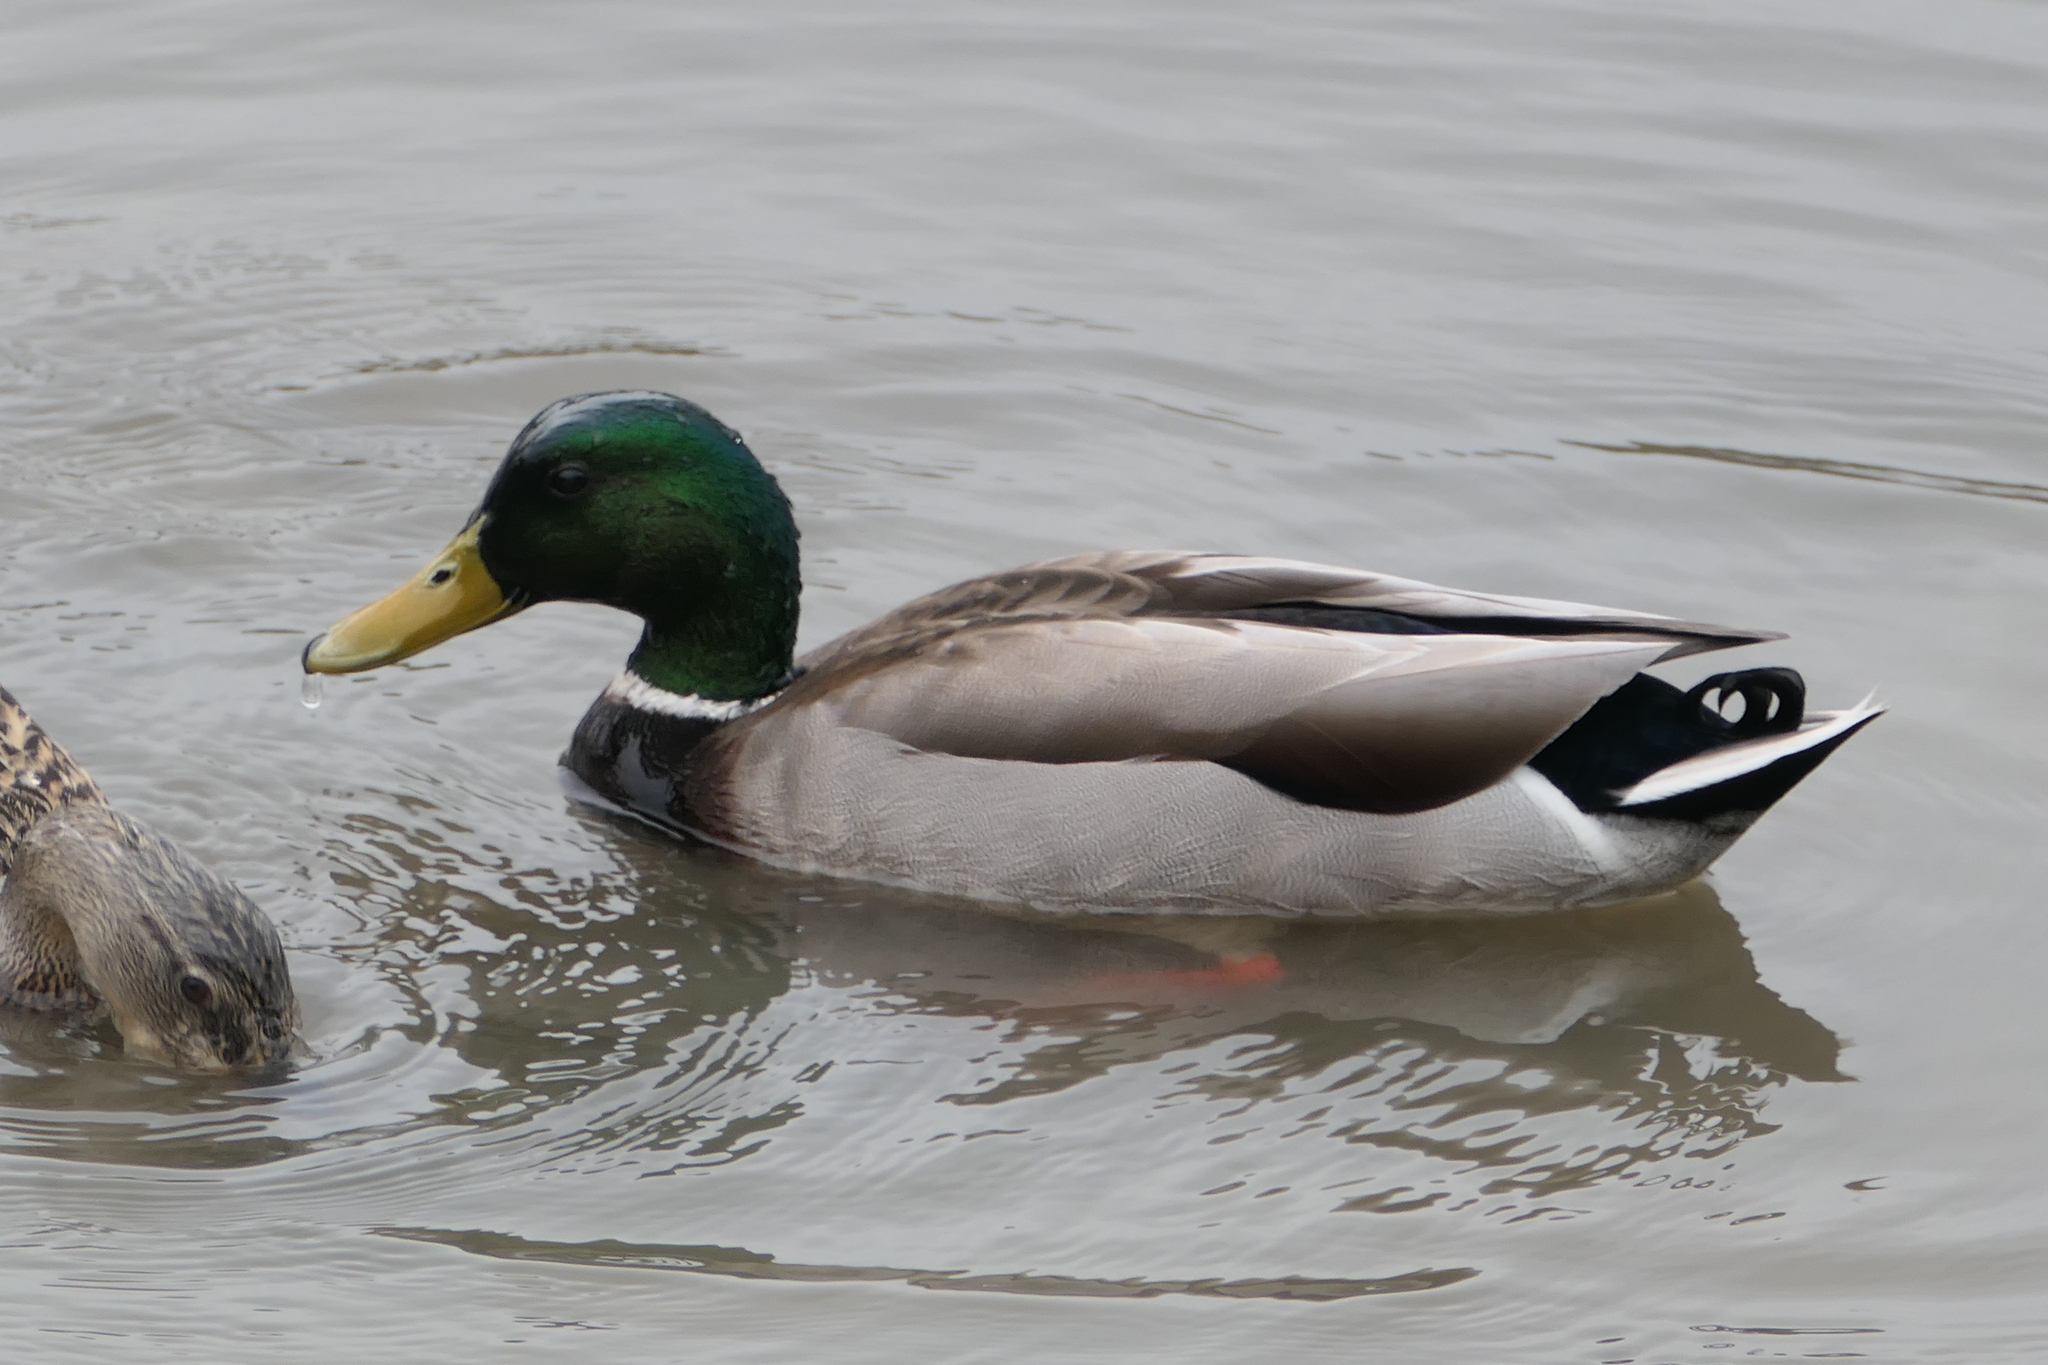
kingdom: Animalia
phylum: Chordata
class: Aves
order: Anseriformes
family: Anatidae
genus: Anas
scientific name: Anas platyrhynchos
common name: Mallard
